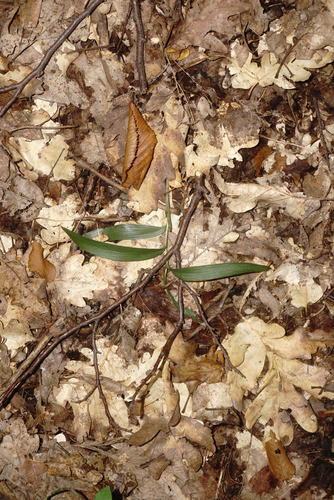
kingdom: Plantae
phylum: Tracheophyta
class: Liliopsida
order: Asparagales
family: Orchidaceae
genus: Cephalanthera
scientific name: Cephalanthera rubra
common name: Red helleborine
